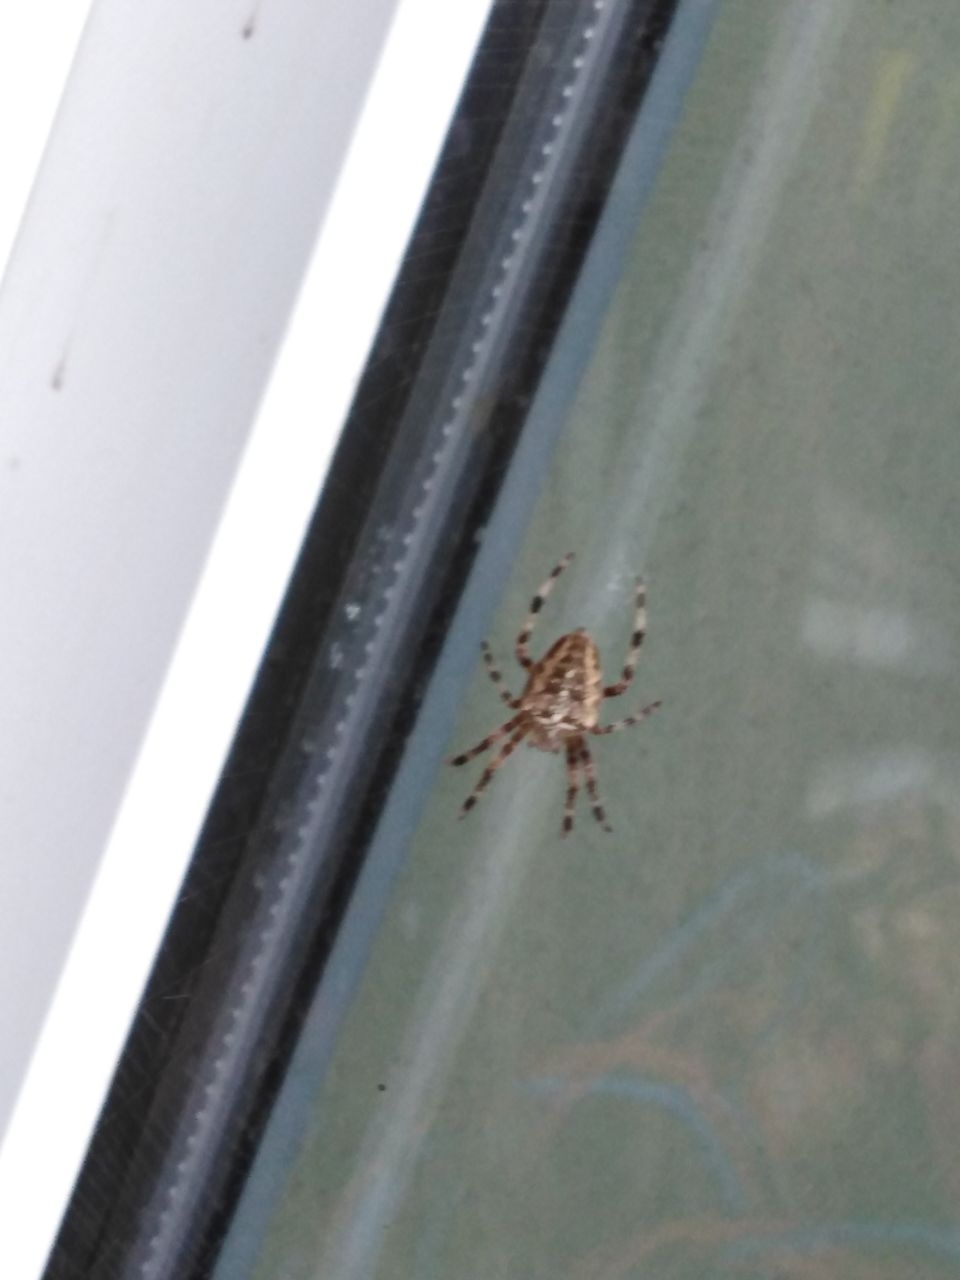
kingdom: Animalia
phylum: Arthropoda
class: Arachnida
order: Araneae
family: Araneidae
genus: Araneus
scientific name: Araneus diadematus
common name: Cross orbweaver
